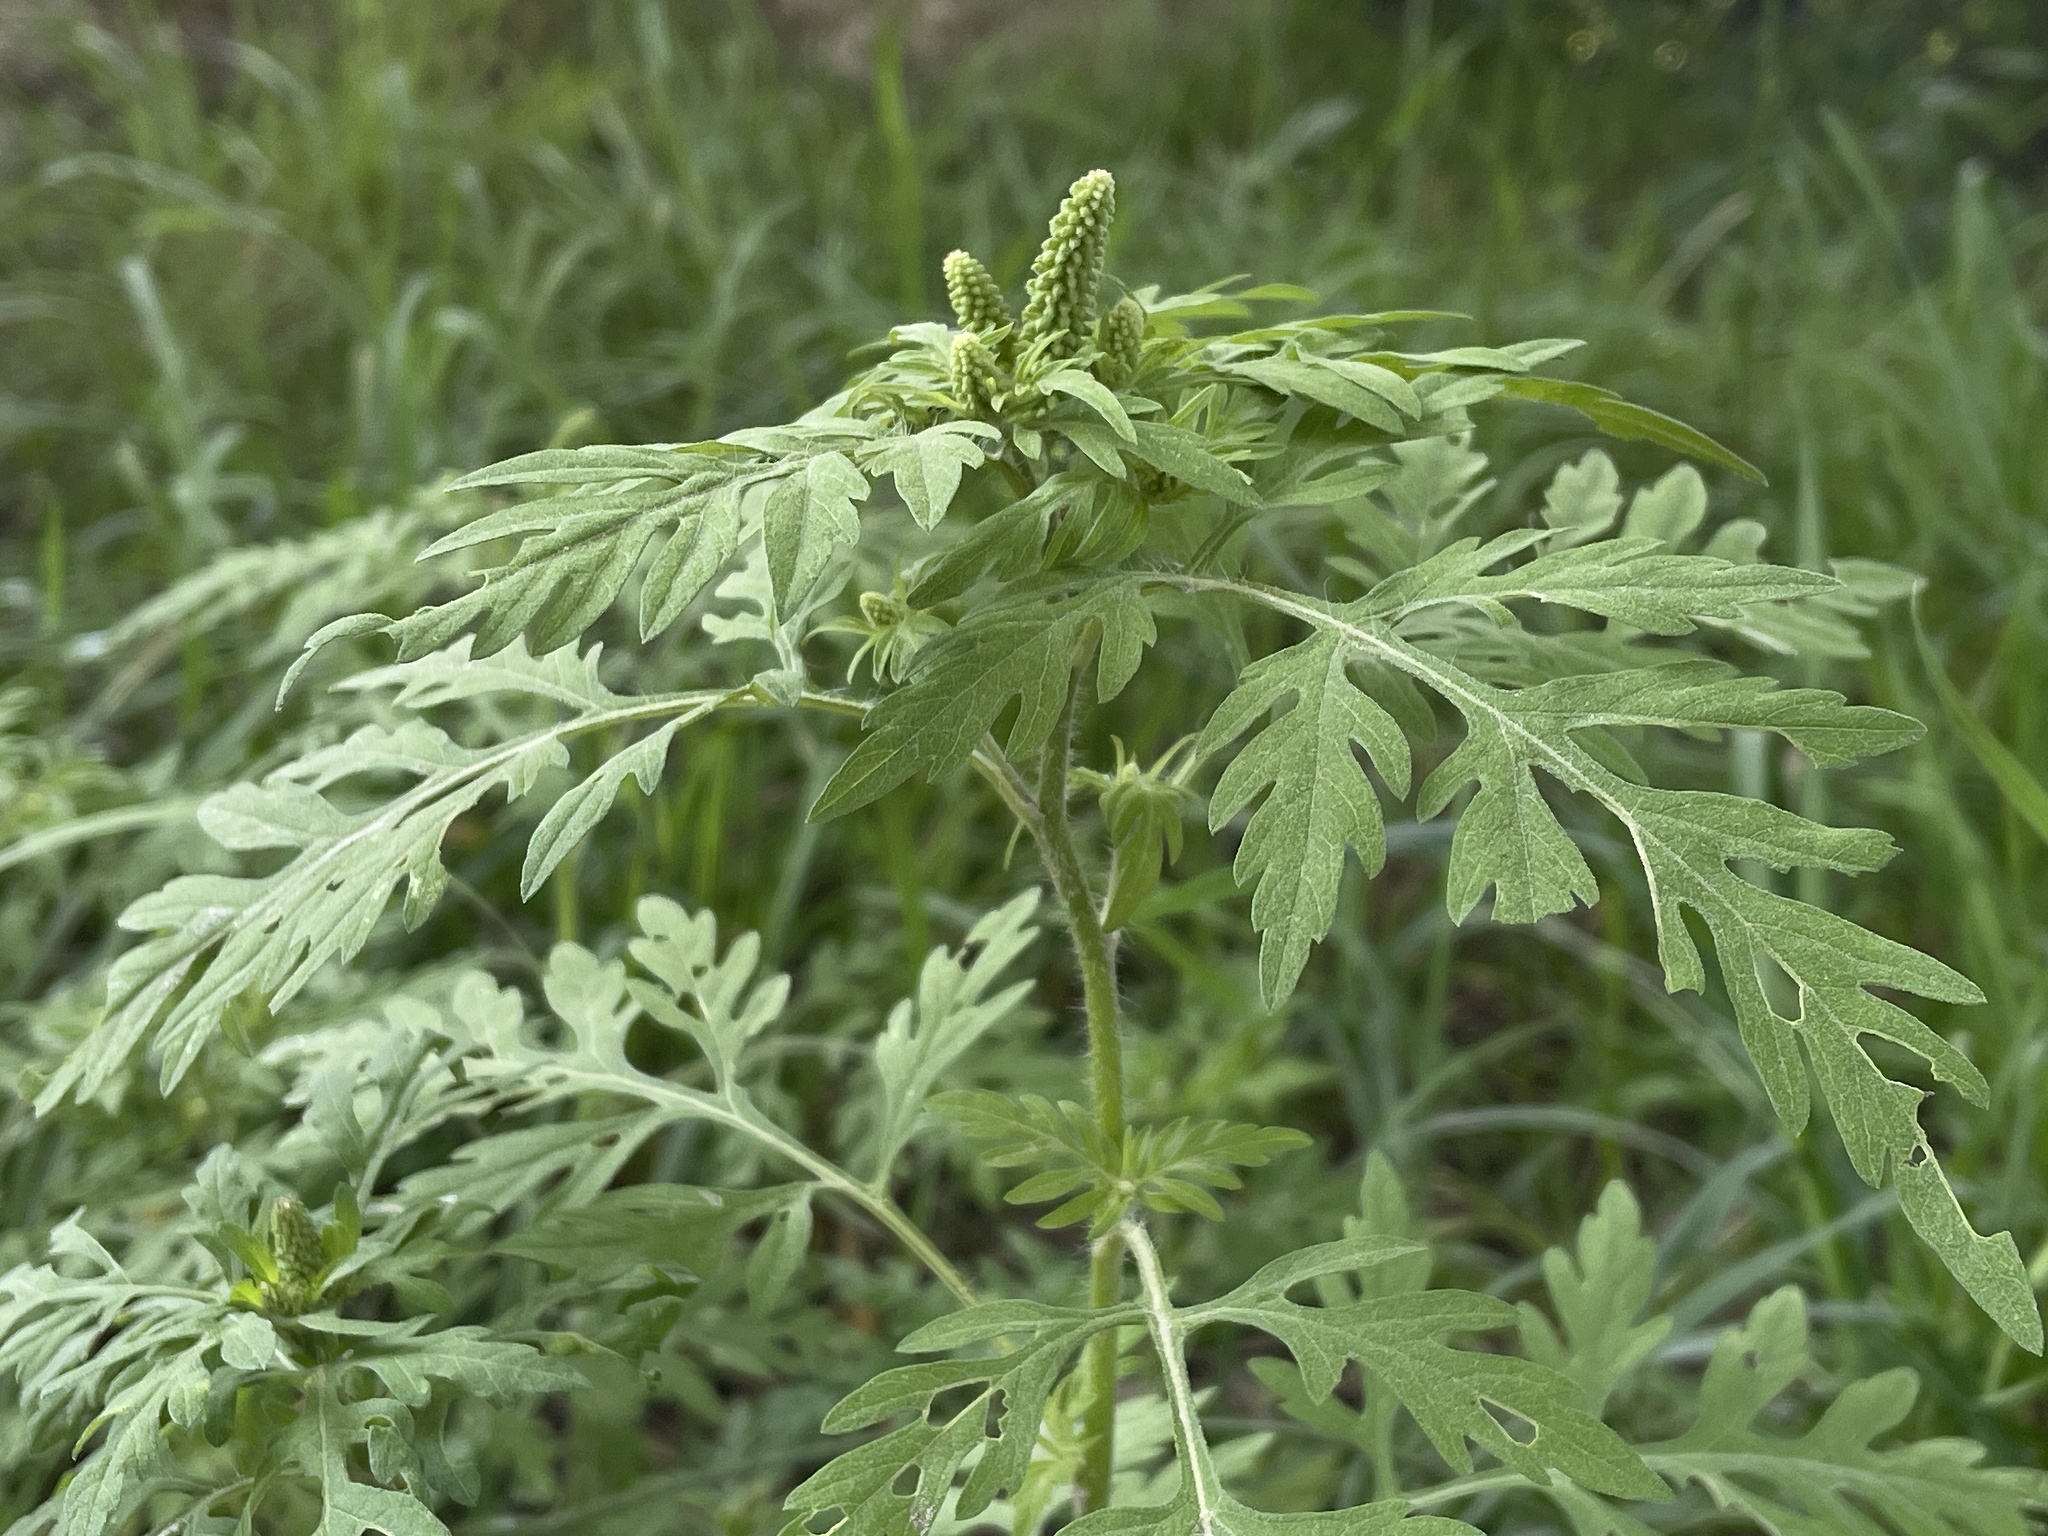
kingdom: Plantae
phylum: Tracheophyta
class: Magnoliopsida
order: Asterales
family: Asteraceae
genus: Ambrosia
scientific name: Ambrosia artemisiifolia
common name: Annual ragweed
